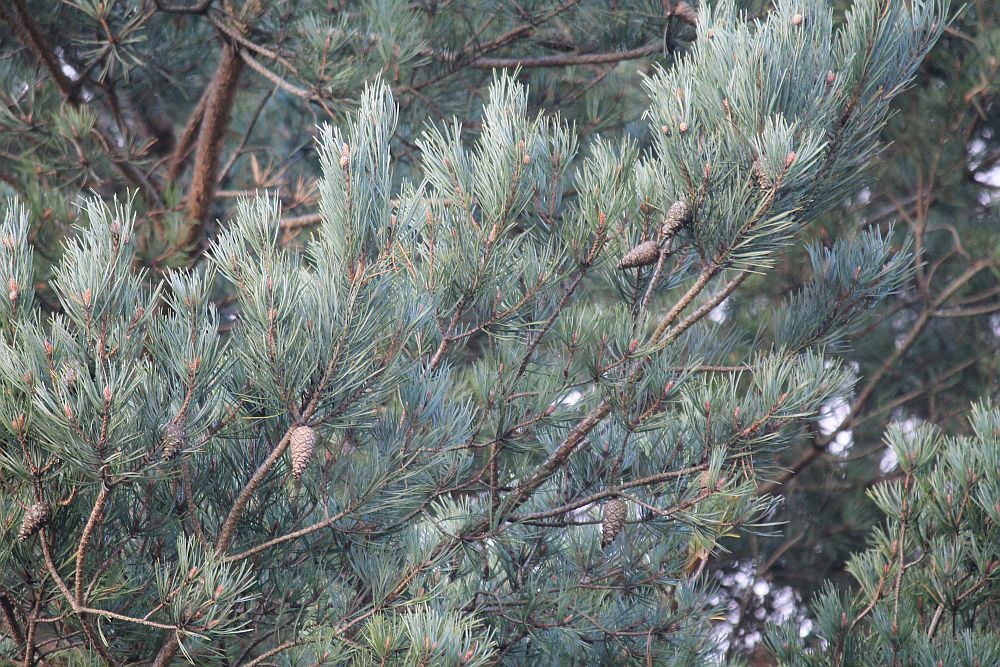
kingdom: Plantae
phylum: Tracheophyta
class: Pinopsida
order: Pinales
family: Pinaceae
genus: Pinus
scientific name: Pinus sylvestris
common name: Scots pine
